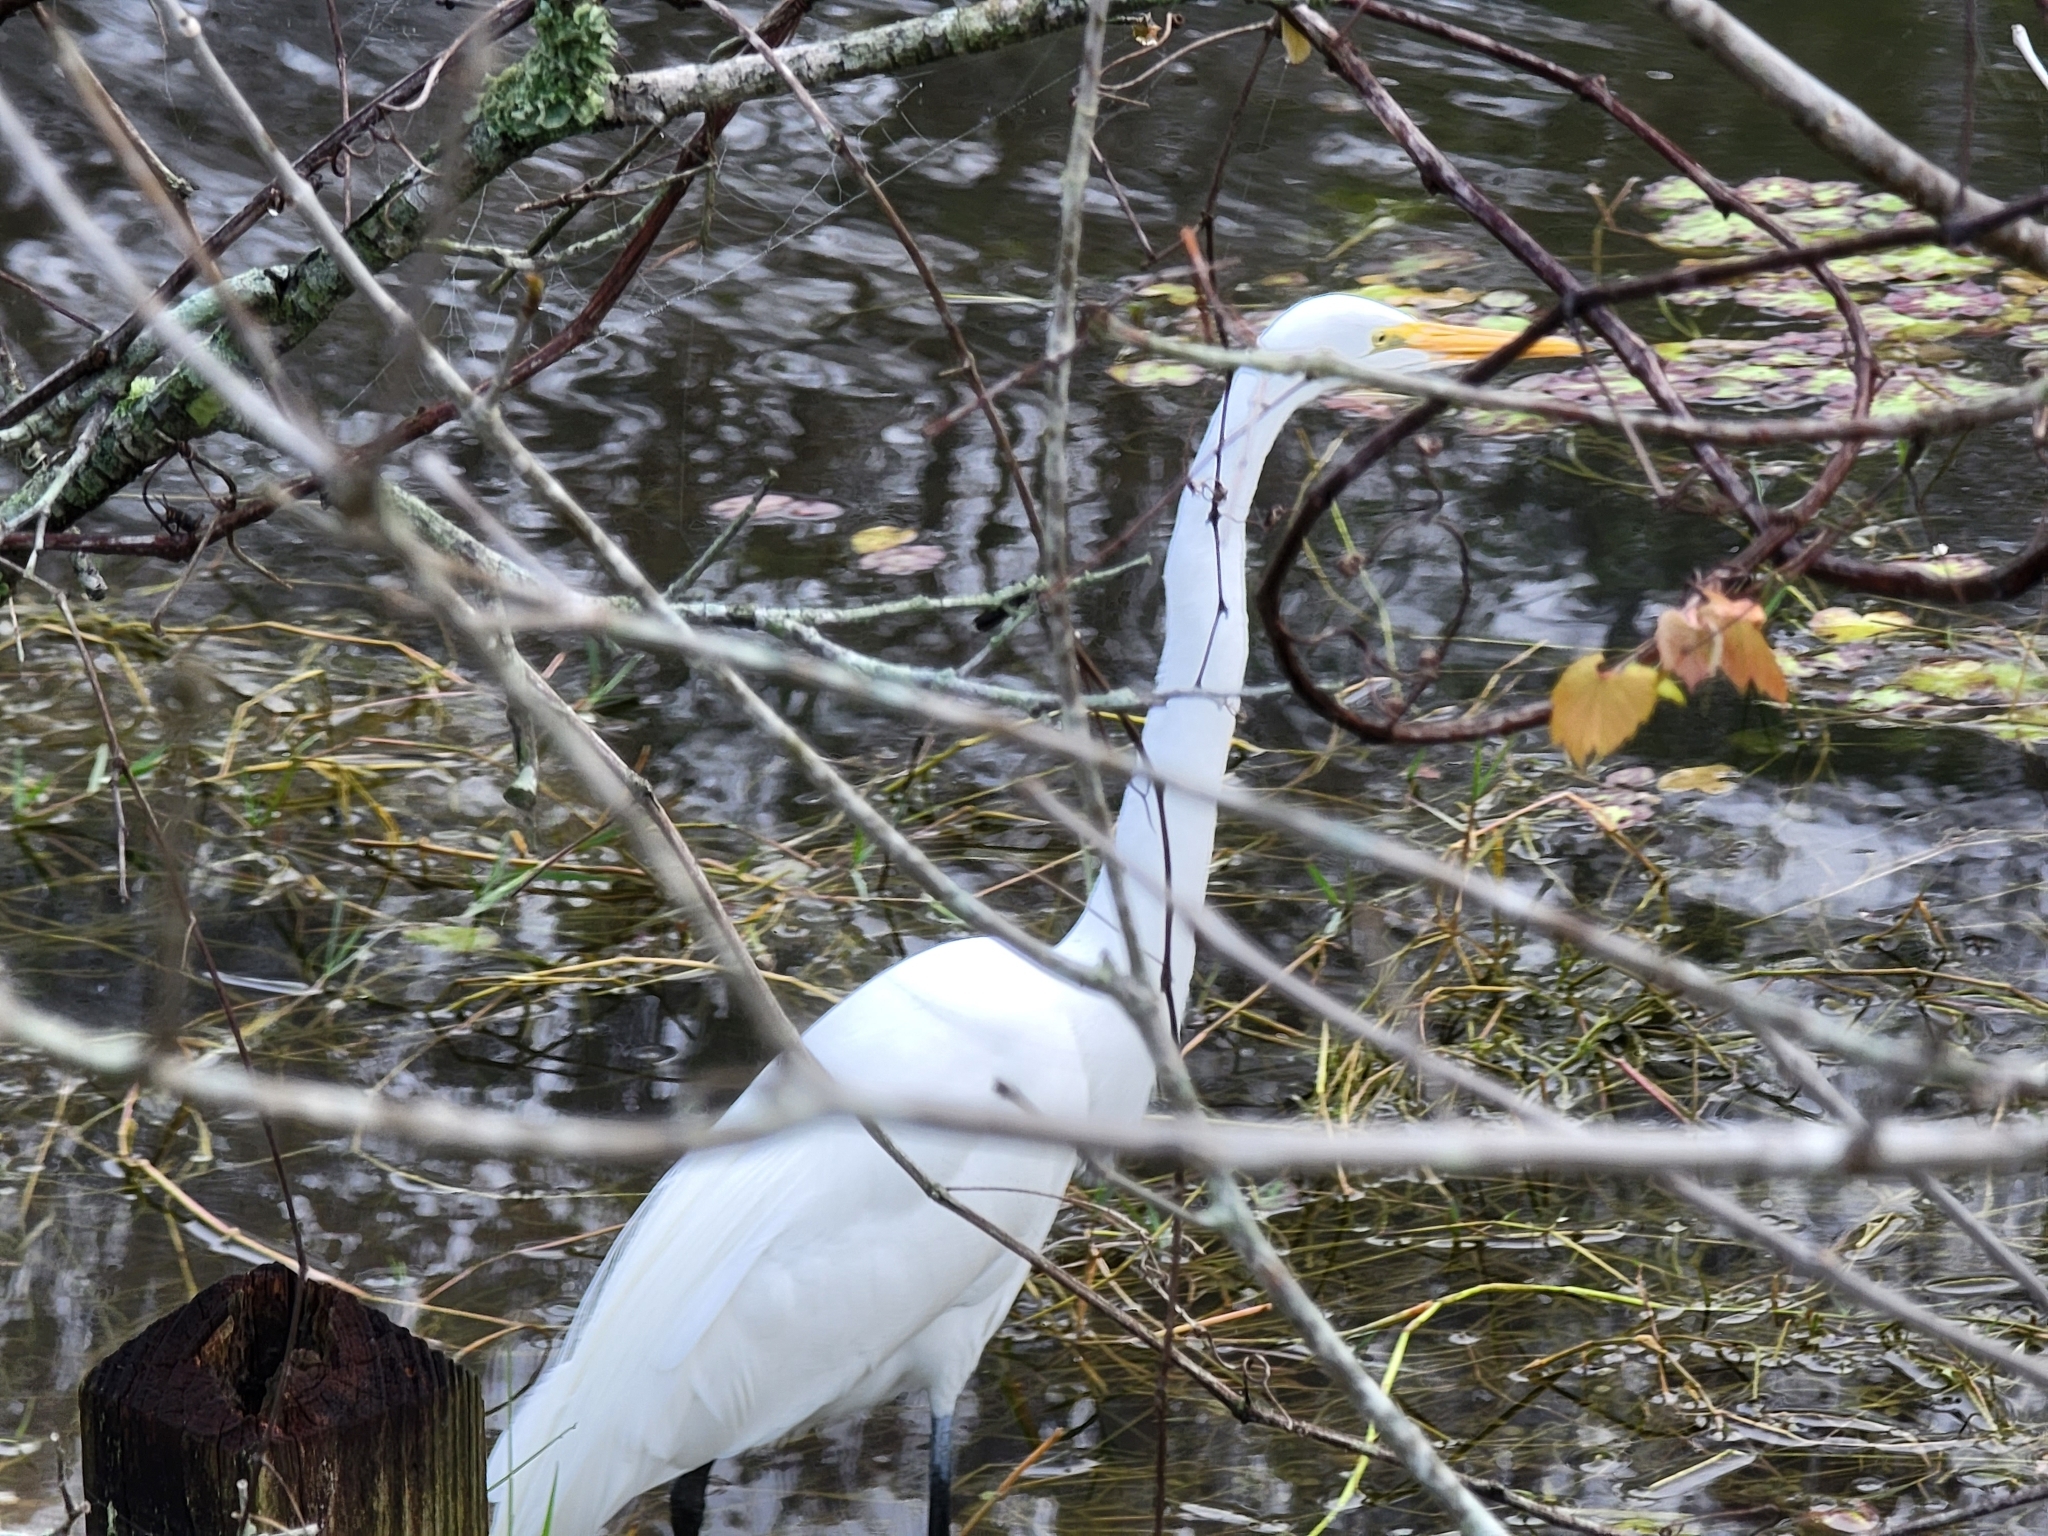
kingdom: Animalia
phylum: Chordata
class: Aves
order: Pelecaniformes
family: Ardeidae
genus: Ardea
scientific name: Ardea alba
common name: Great egret
